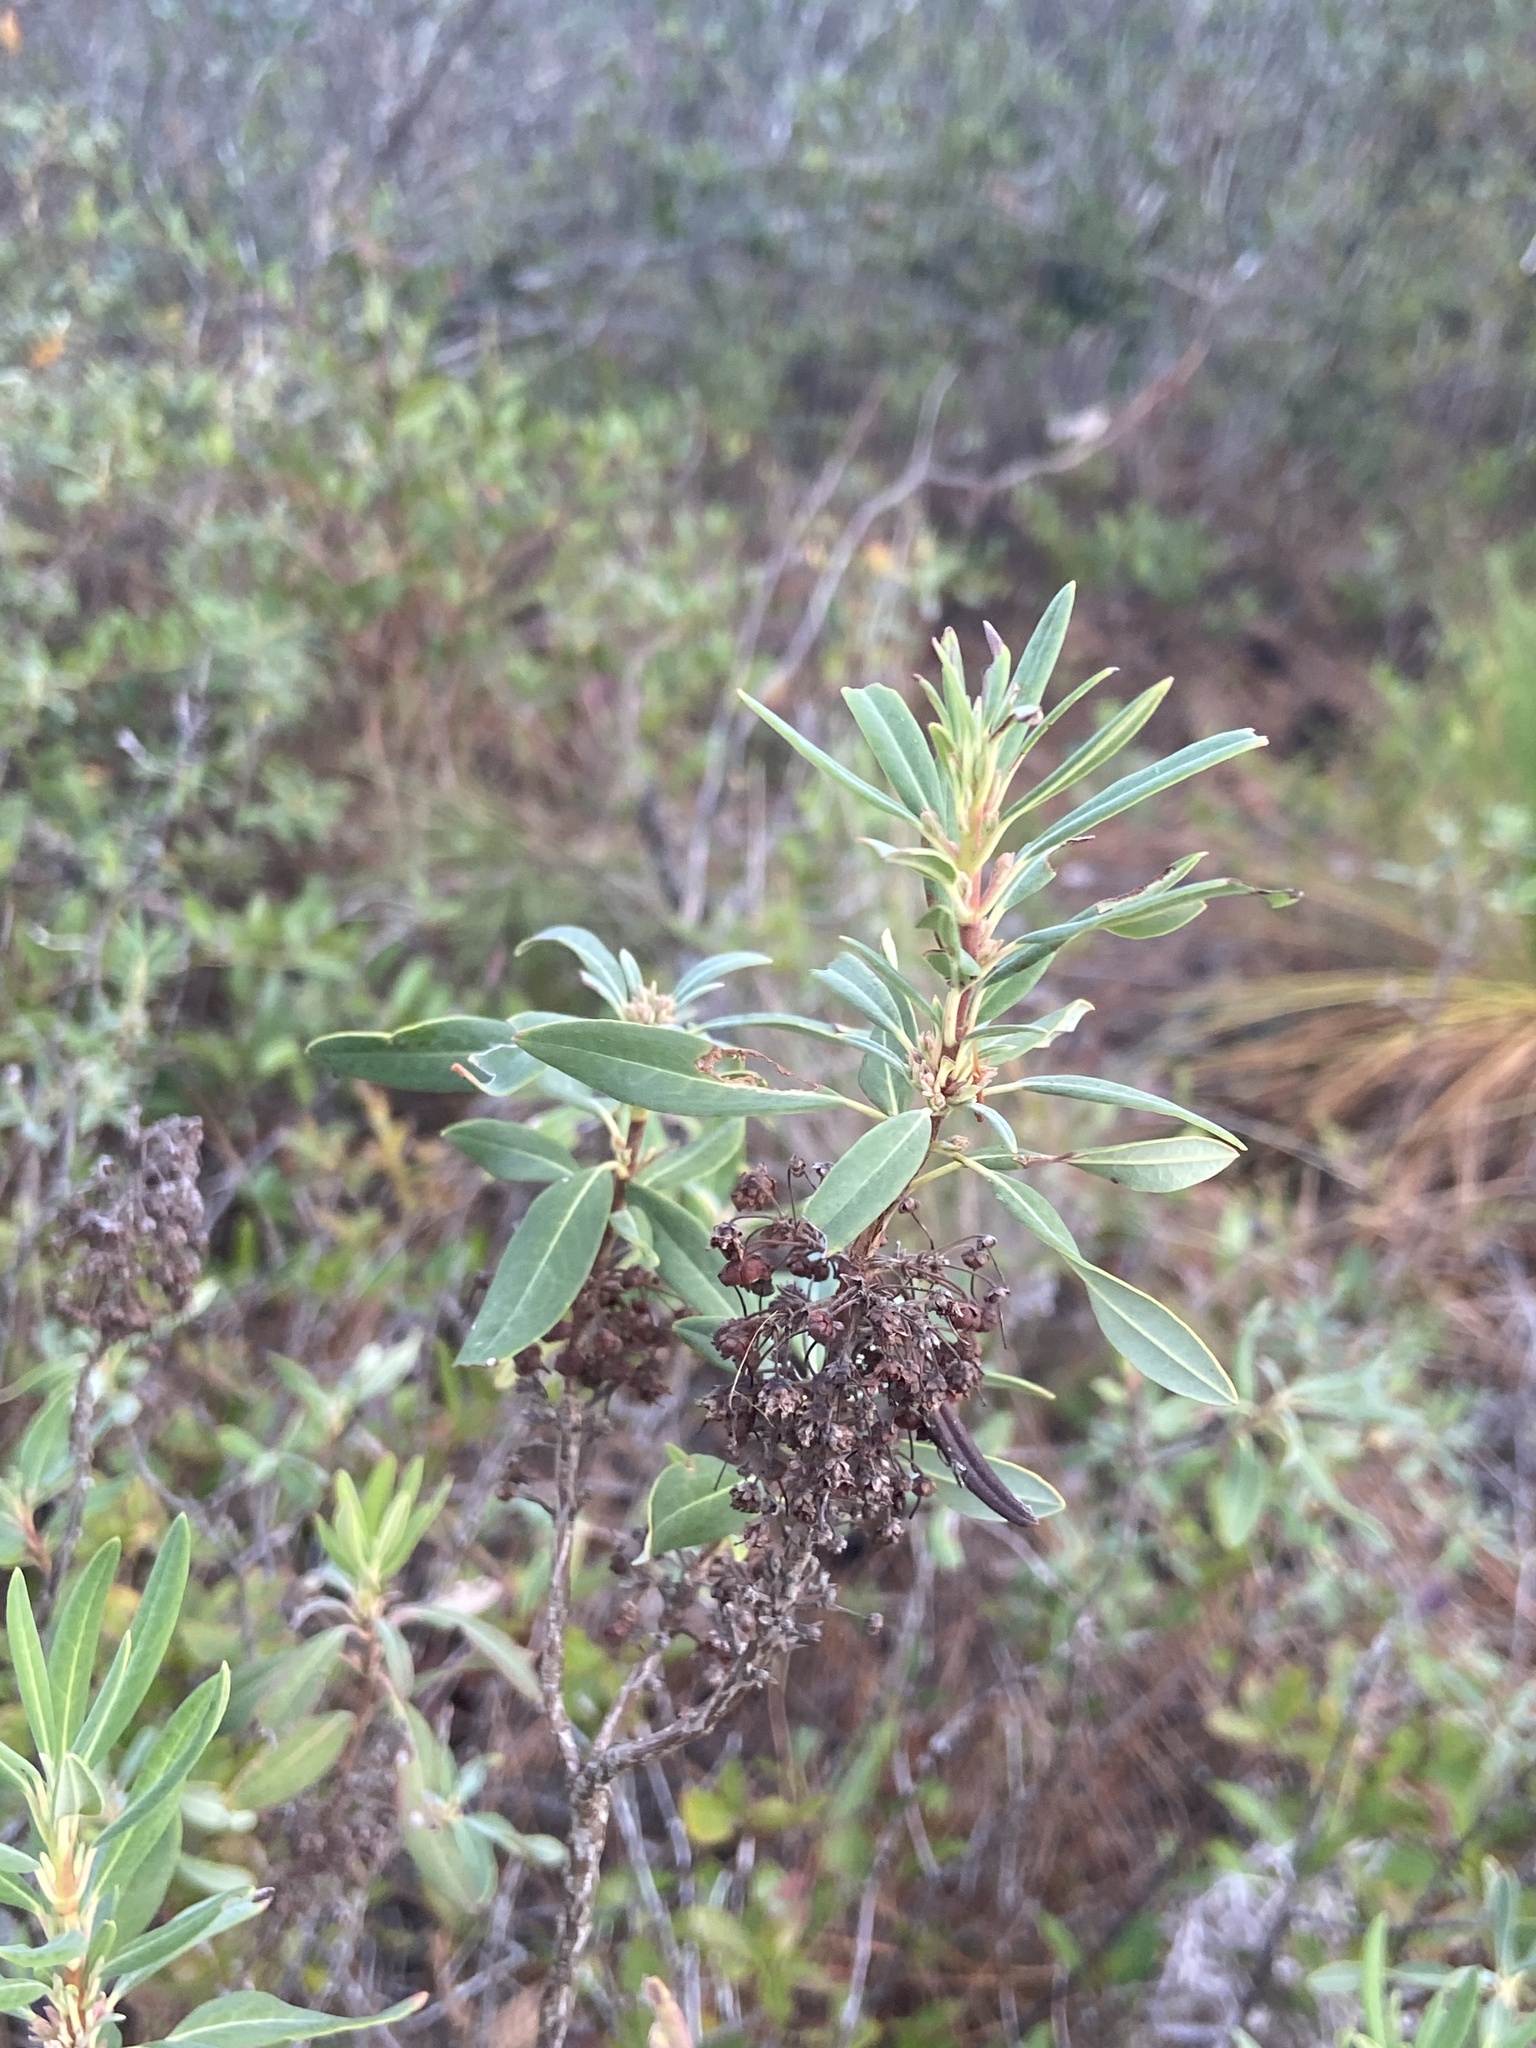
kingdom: Plantae
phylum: Tracheophyta
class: Magnoliopsida
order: Ericales
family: Ericaceae
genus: Kalmia
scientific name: Kalmia angustifolia
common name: Sheep-laurel
